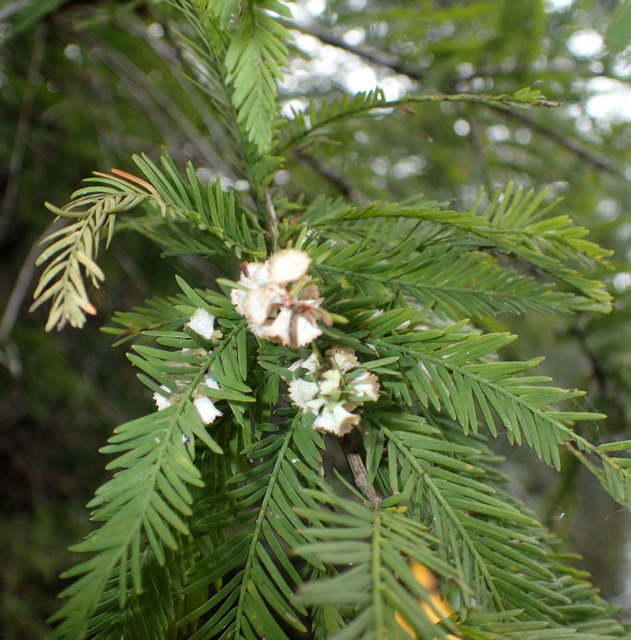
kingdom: Animalia
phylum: Arthropoda
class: Insecta
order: Diptera
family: Cecidomyiidae
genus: Taxodiomyia
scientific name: Taxodiomyia cupressi
